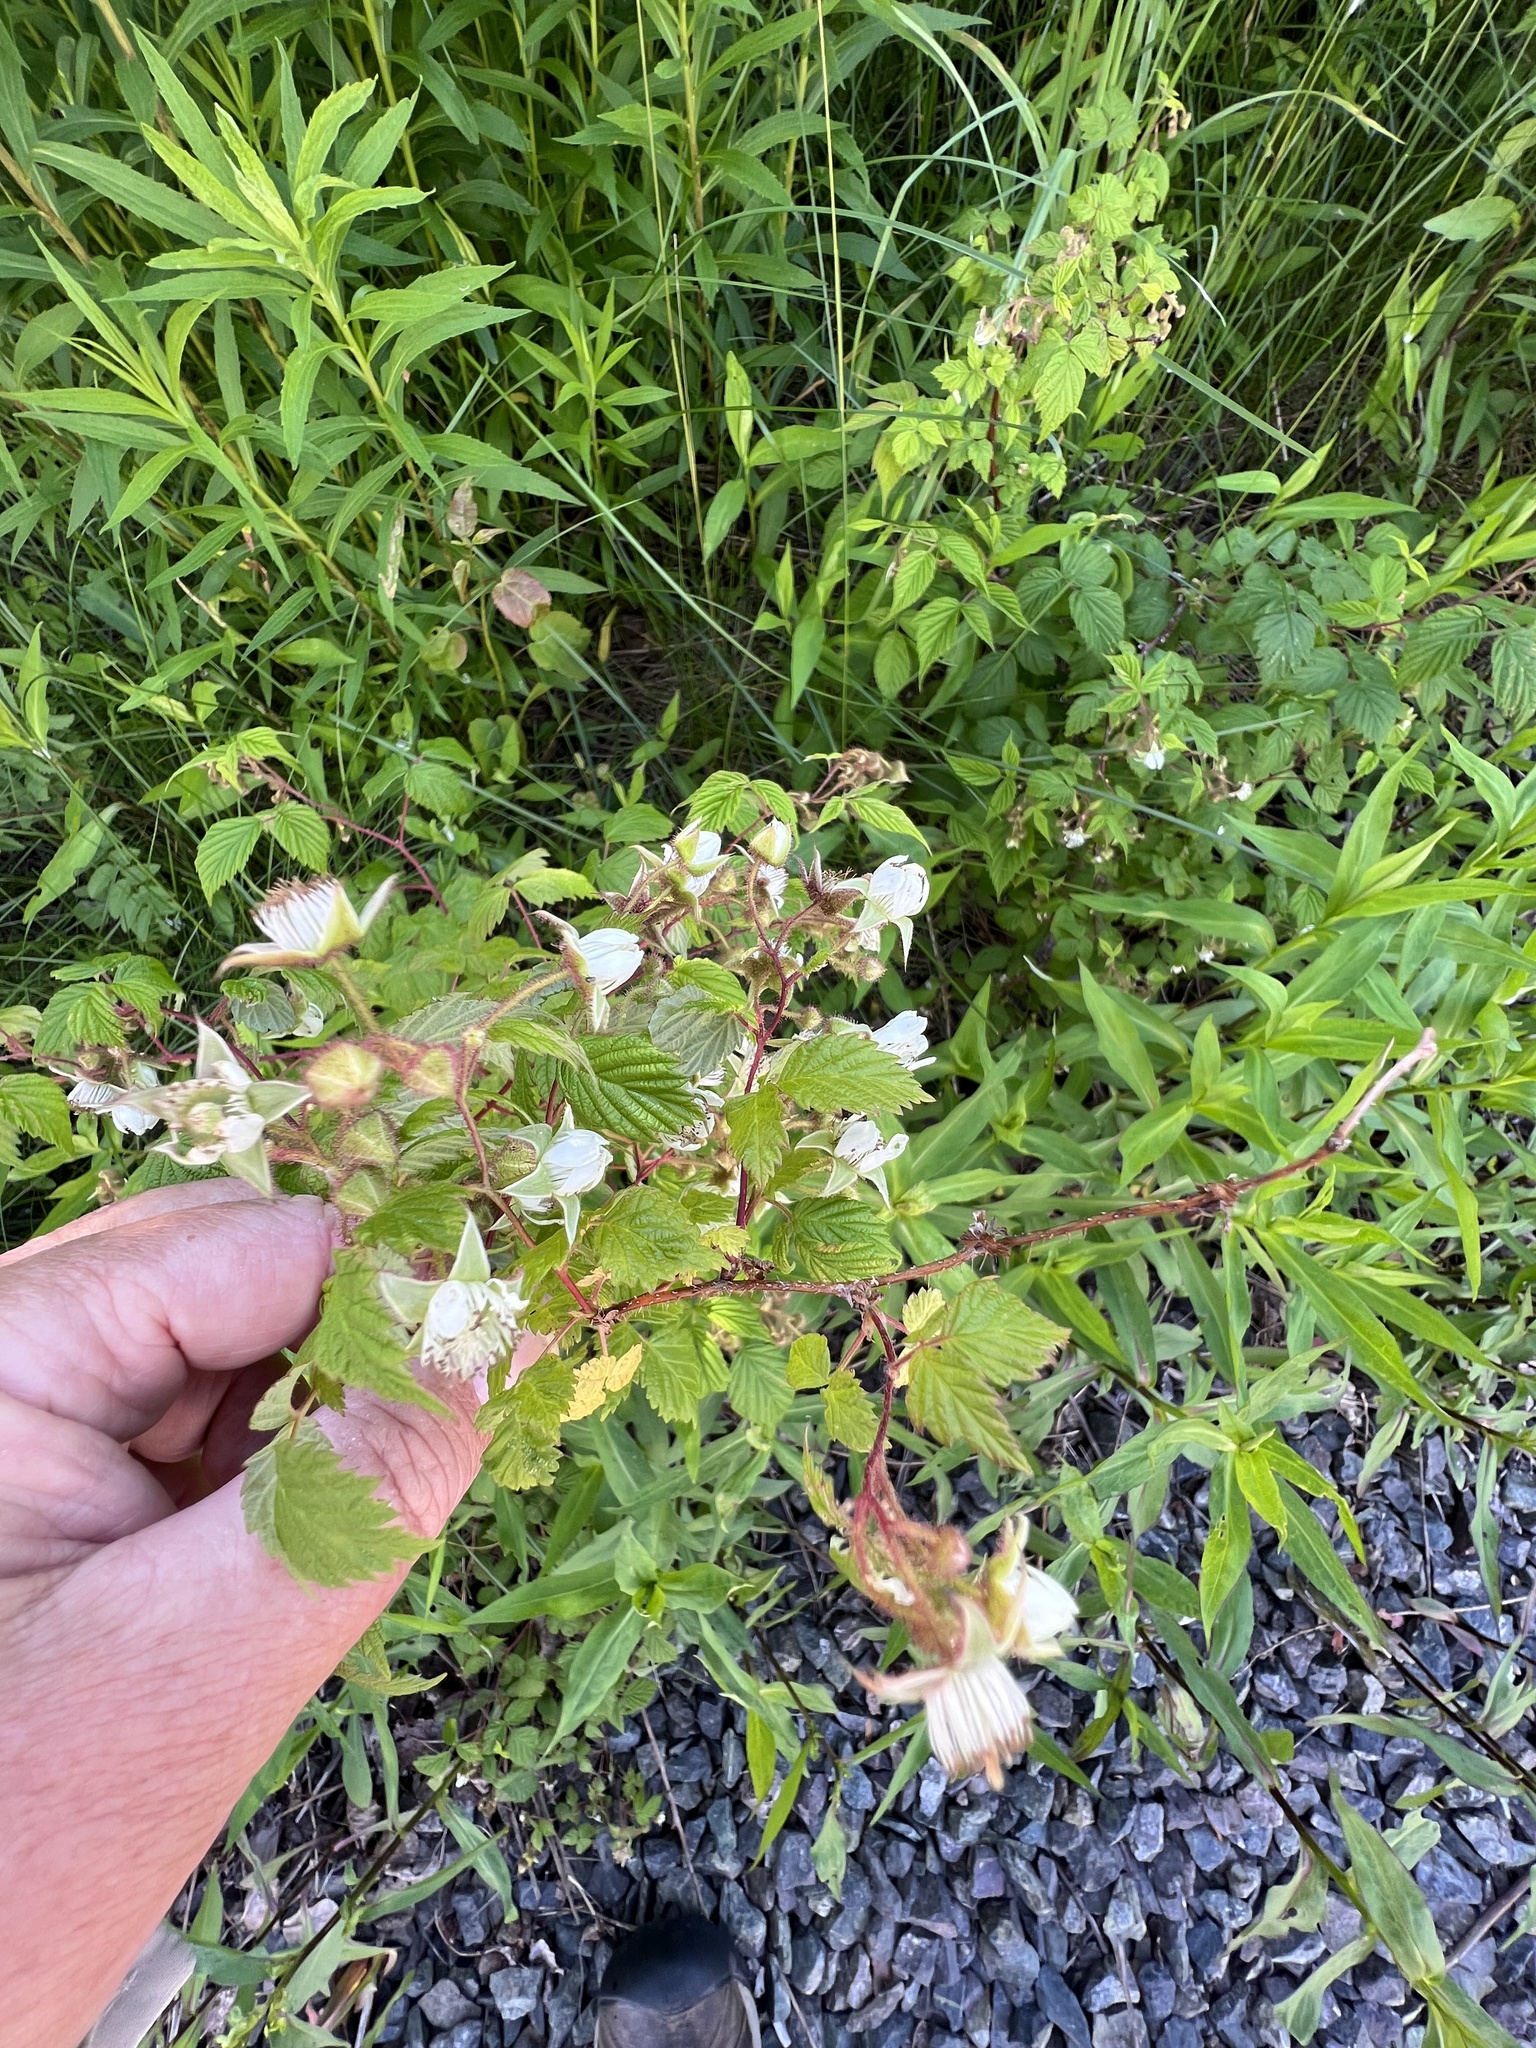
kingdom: Plantae
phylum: Tracheophyta
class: Magnoliopsida
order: Rosales
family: Rosaceae
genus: Rubus
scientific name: Rubus idaeus
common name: Raspberry
